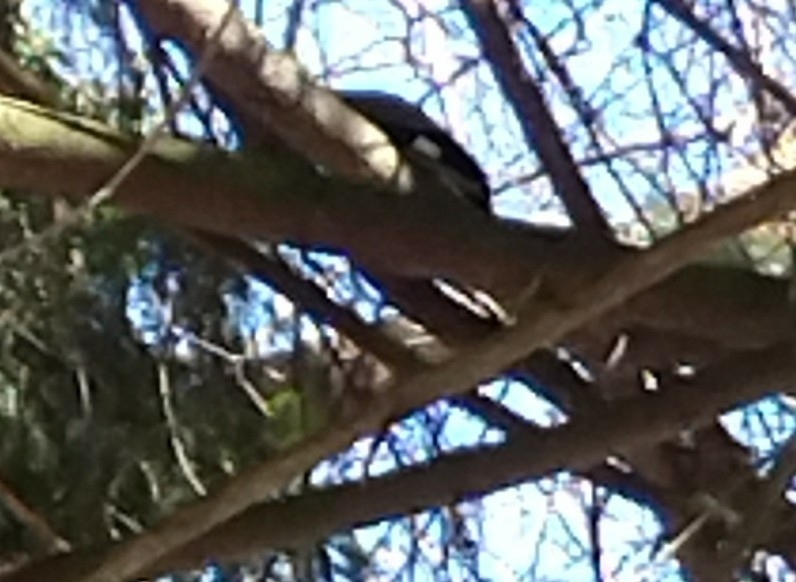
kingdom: Animalia
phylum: Chordata
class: Aves
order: Passeriformes
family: Corvidae
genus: Garrulus
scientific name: Garrulus glandarius
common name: Eurasian jay
